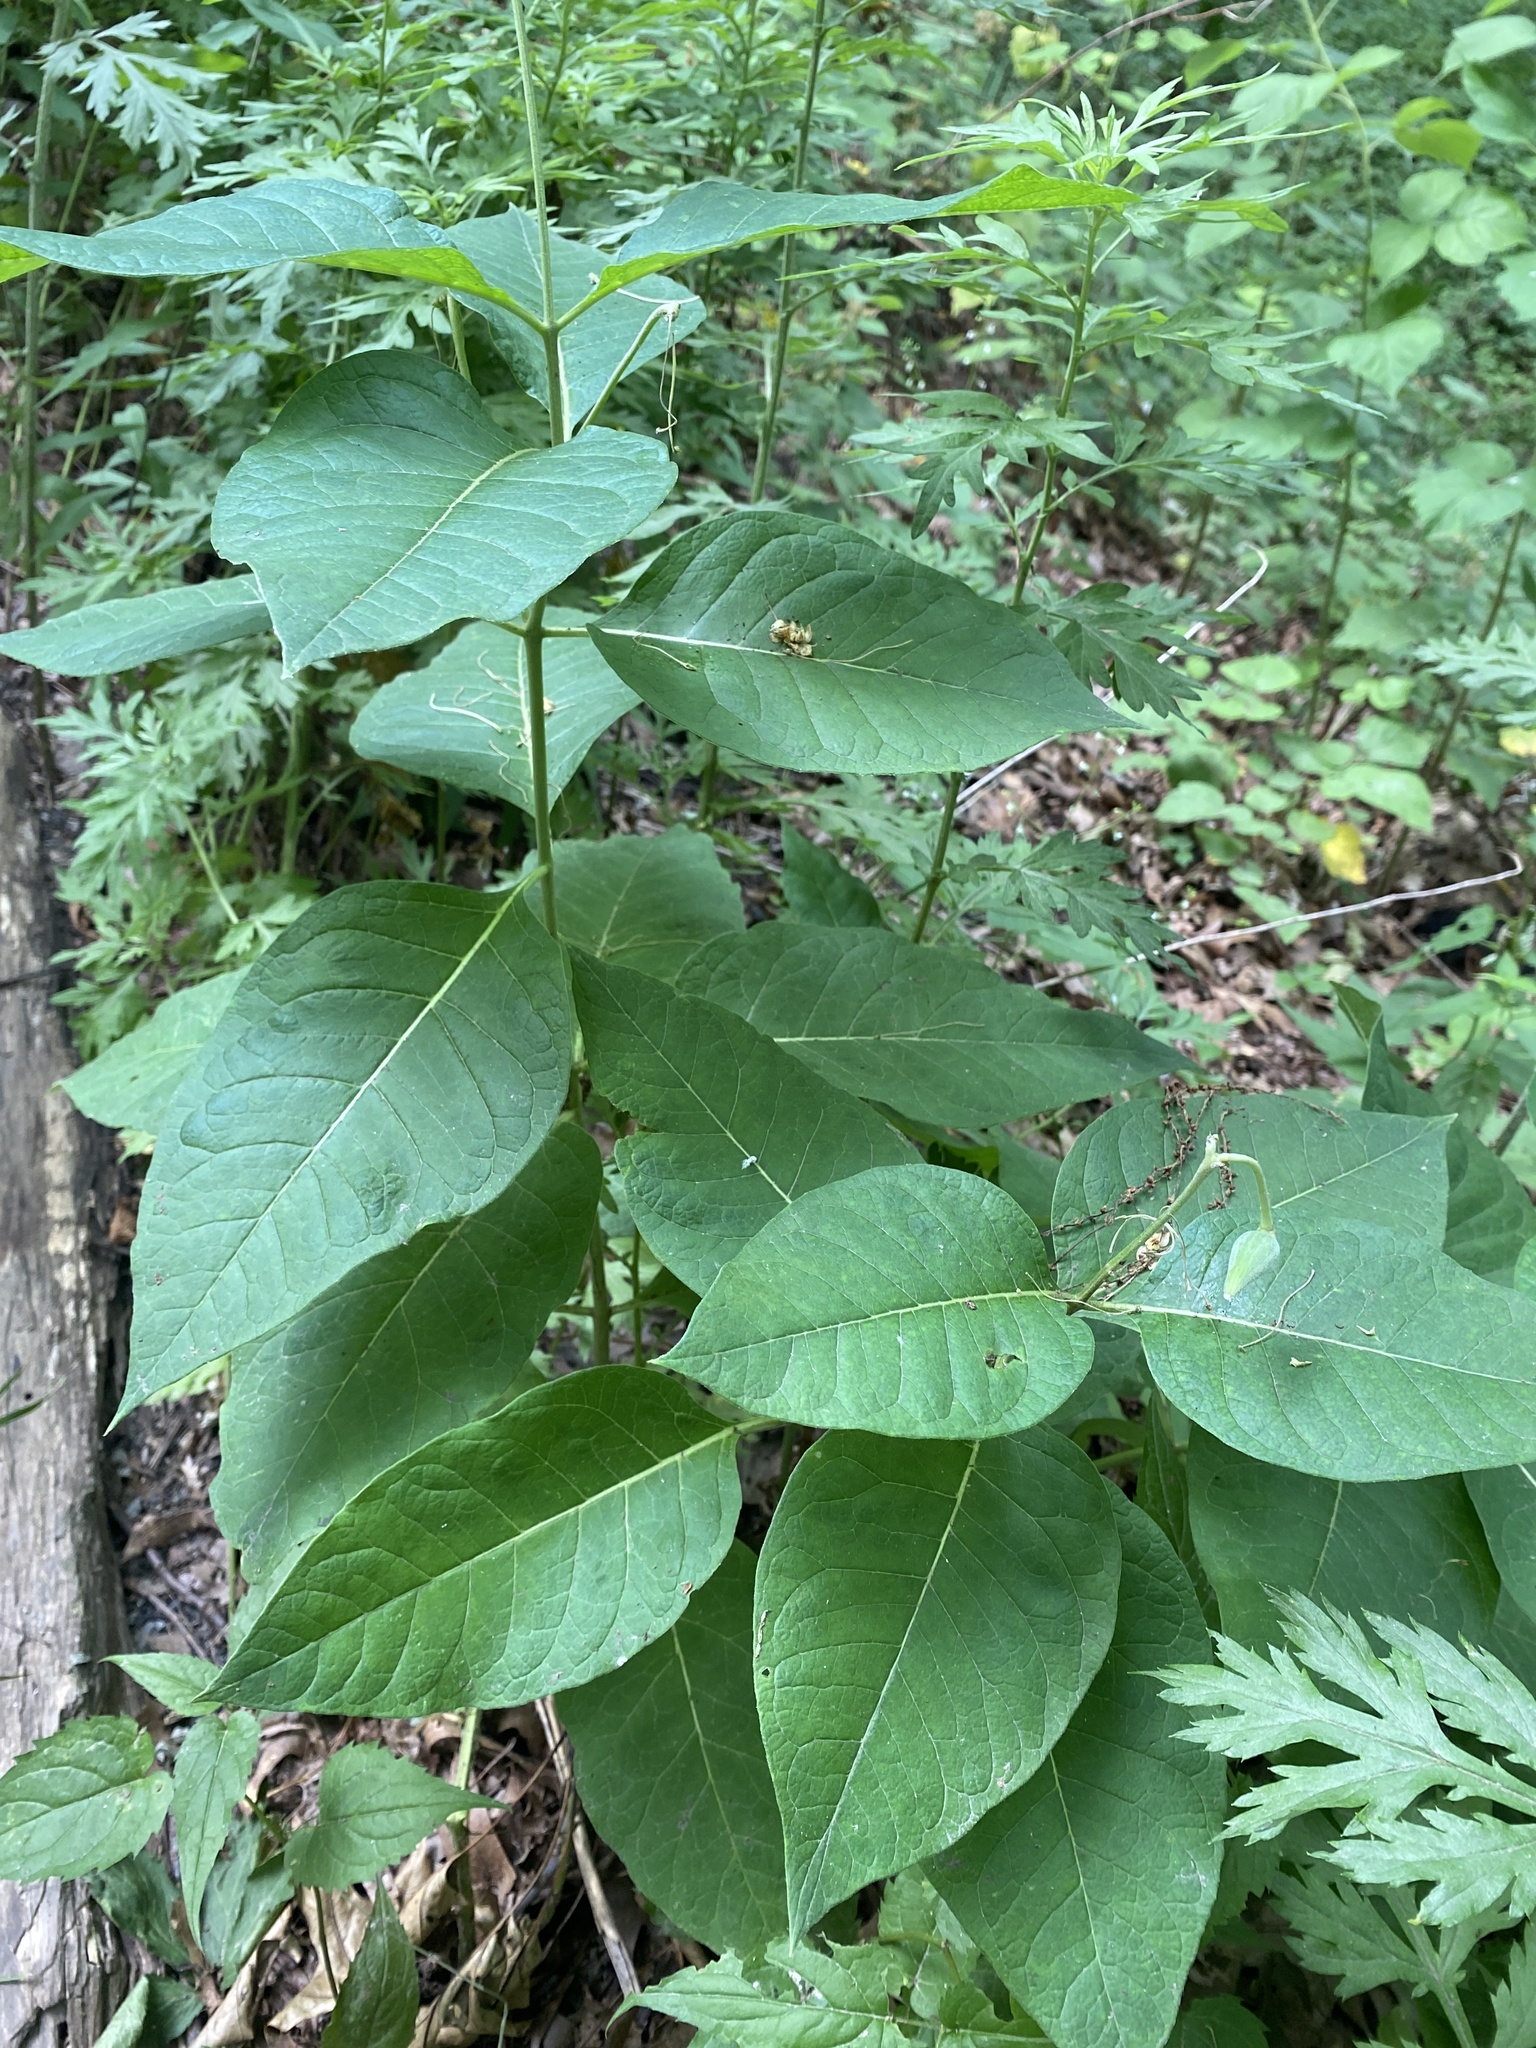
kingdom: Plantae
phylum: Tracheophyta
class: Magnoliopsida
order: Gentianales
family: Apocynaceae
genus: Asclepias
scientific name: Asclepias exaltata
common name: Poke milkweed
